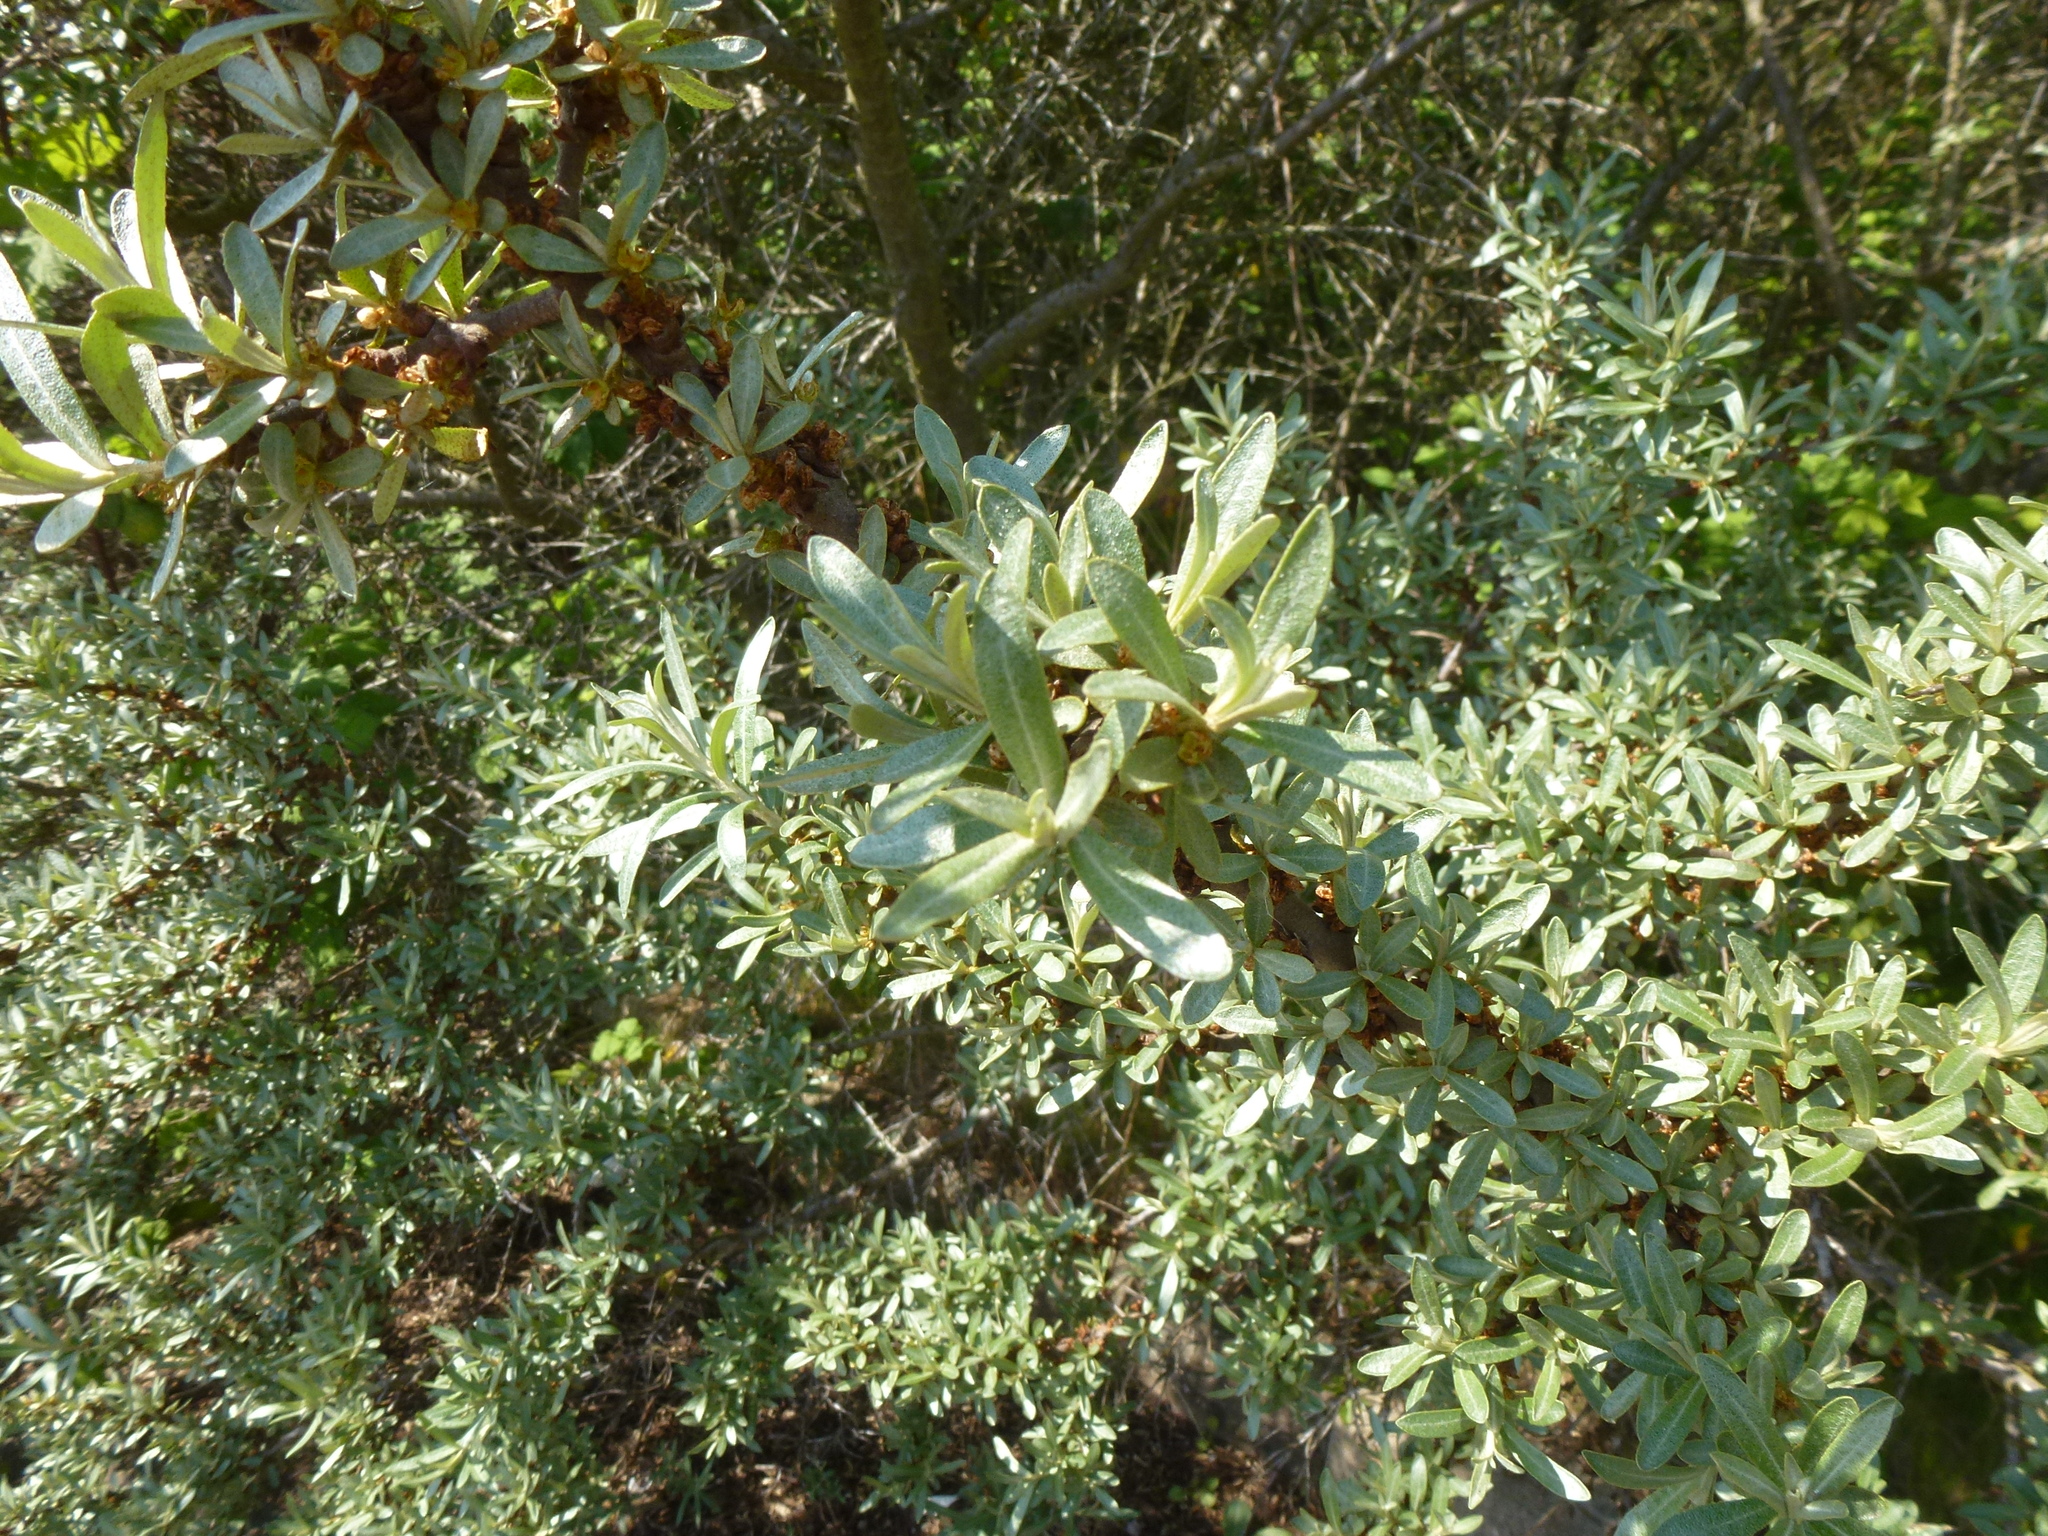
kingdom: Plantae
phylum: Tracheophyta
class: Magnoliopsida
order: Rosales
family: Elaeagnaceae
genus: Hippophae
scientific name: Hippophae rhamnoides
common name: Sea-buckthorn
